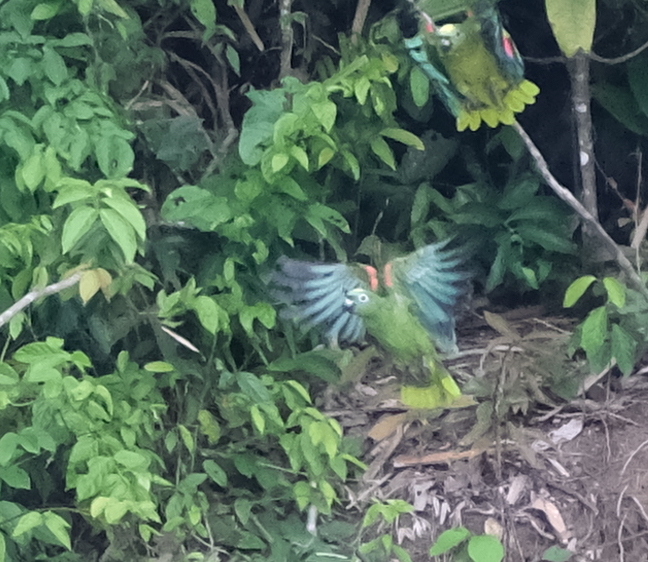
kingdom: Animalia
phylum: Chordata
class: Aves
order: Psittaciformes
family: Psittacidae
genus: Amazona
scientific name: Amazona ochrocephala
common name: Yellow-crowned amazon
